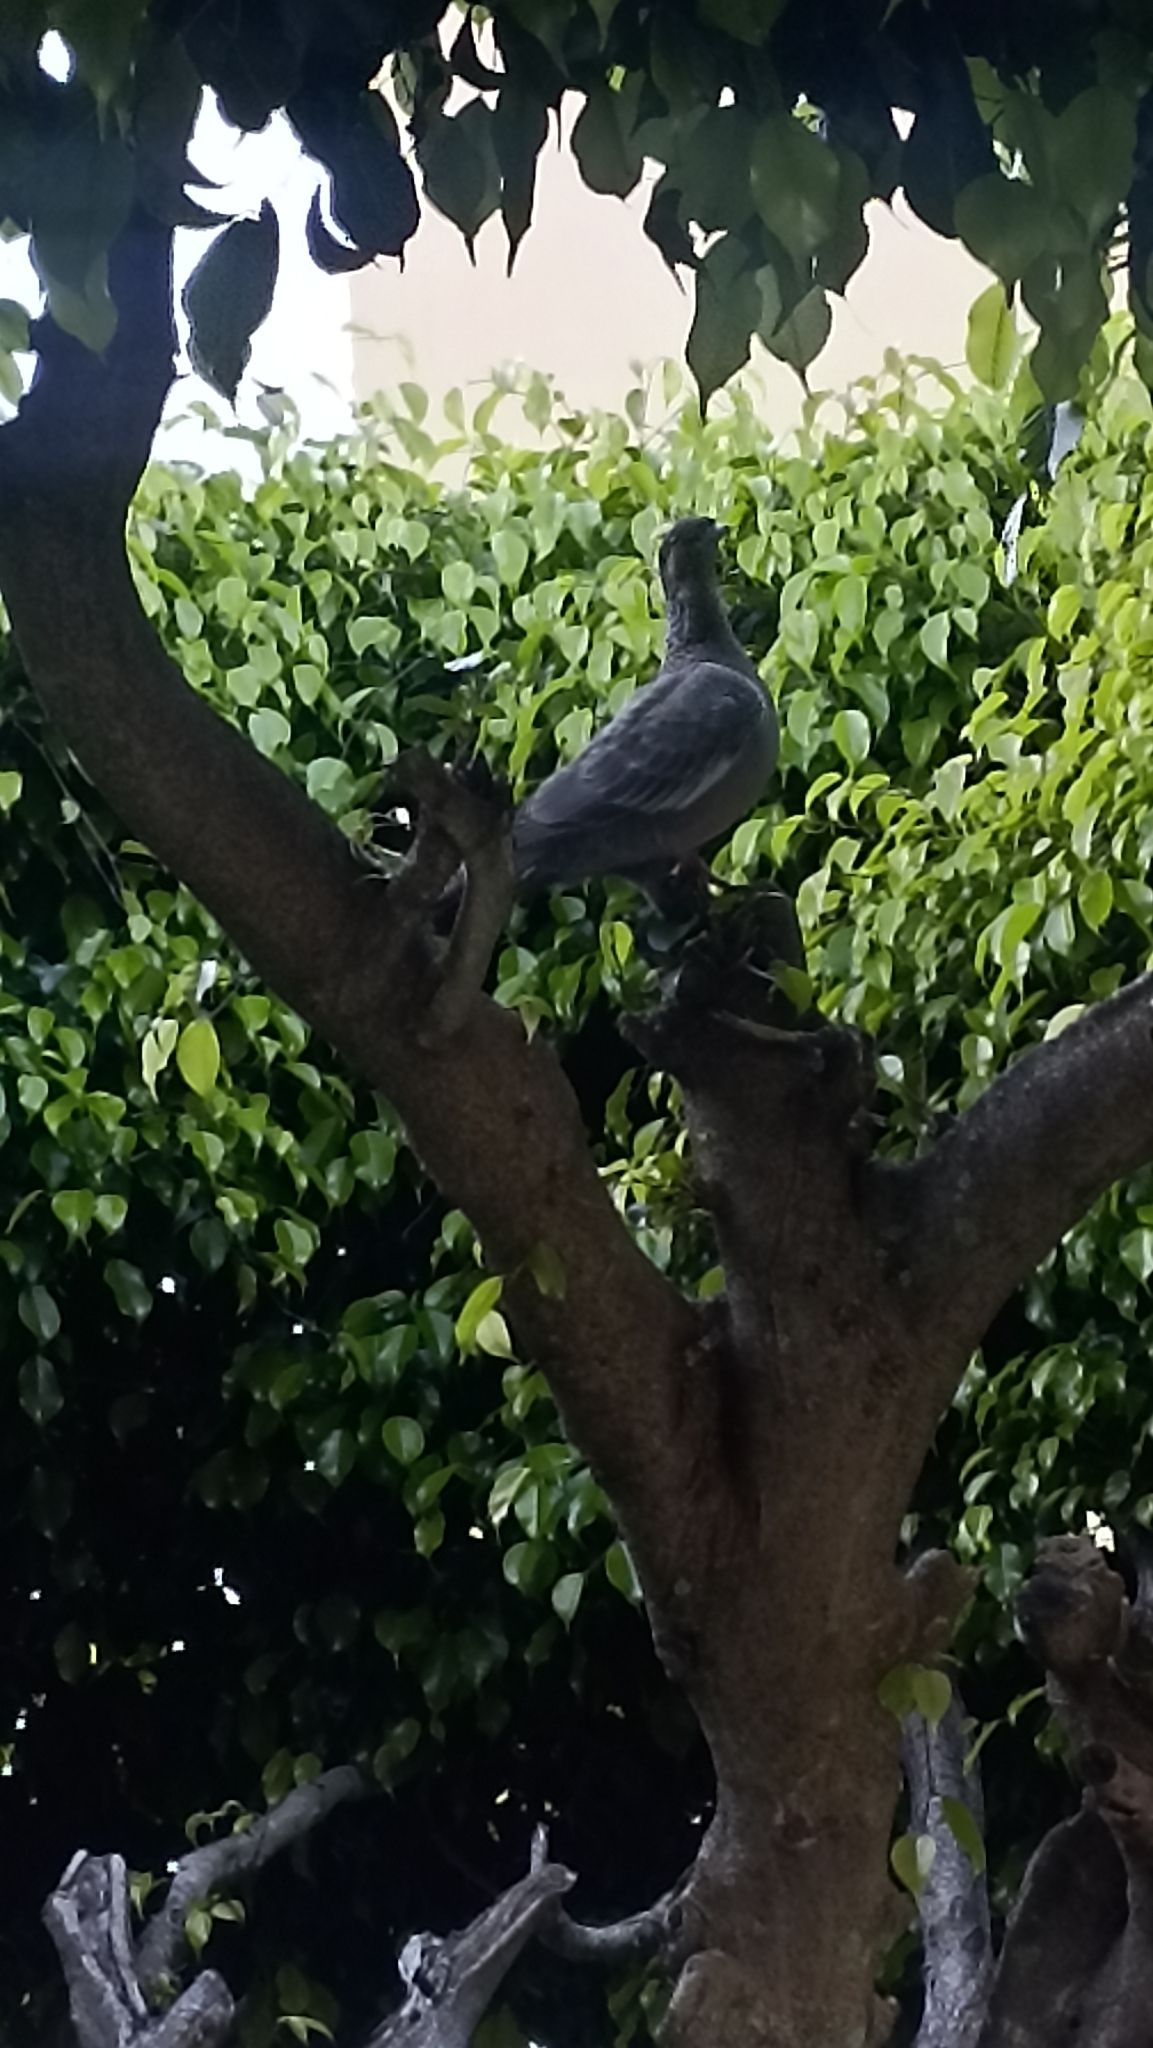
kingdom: Animalia
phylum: Chordata
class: Aves
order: Columbiformes
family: Columbidae
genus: Patagioenas
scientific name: Patagioenas picazuro
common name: Picazuro pigeon
